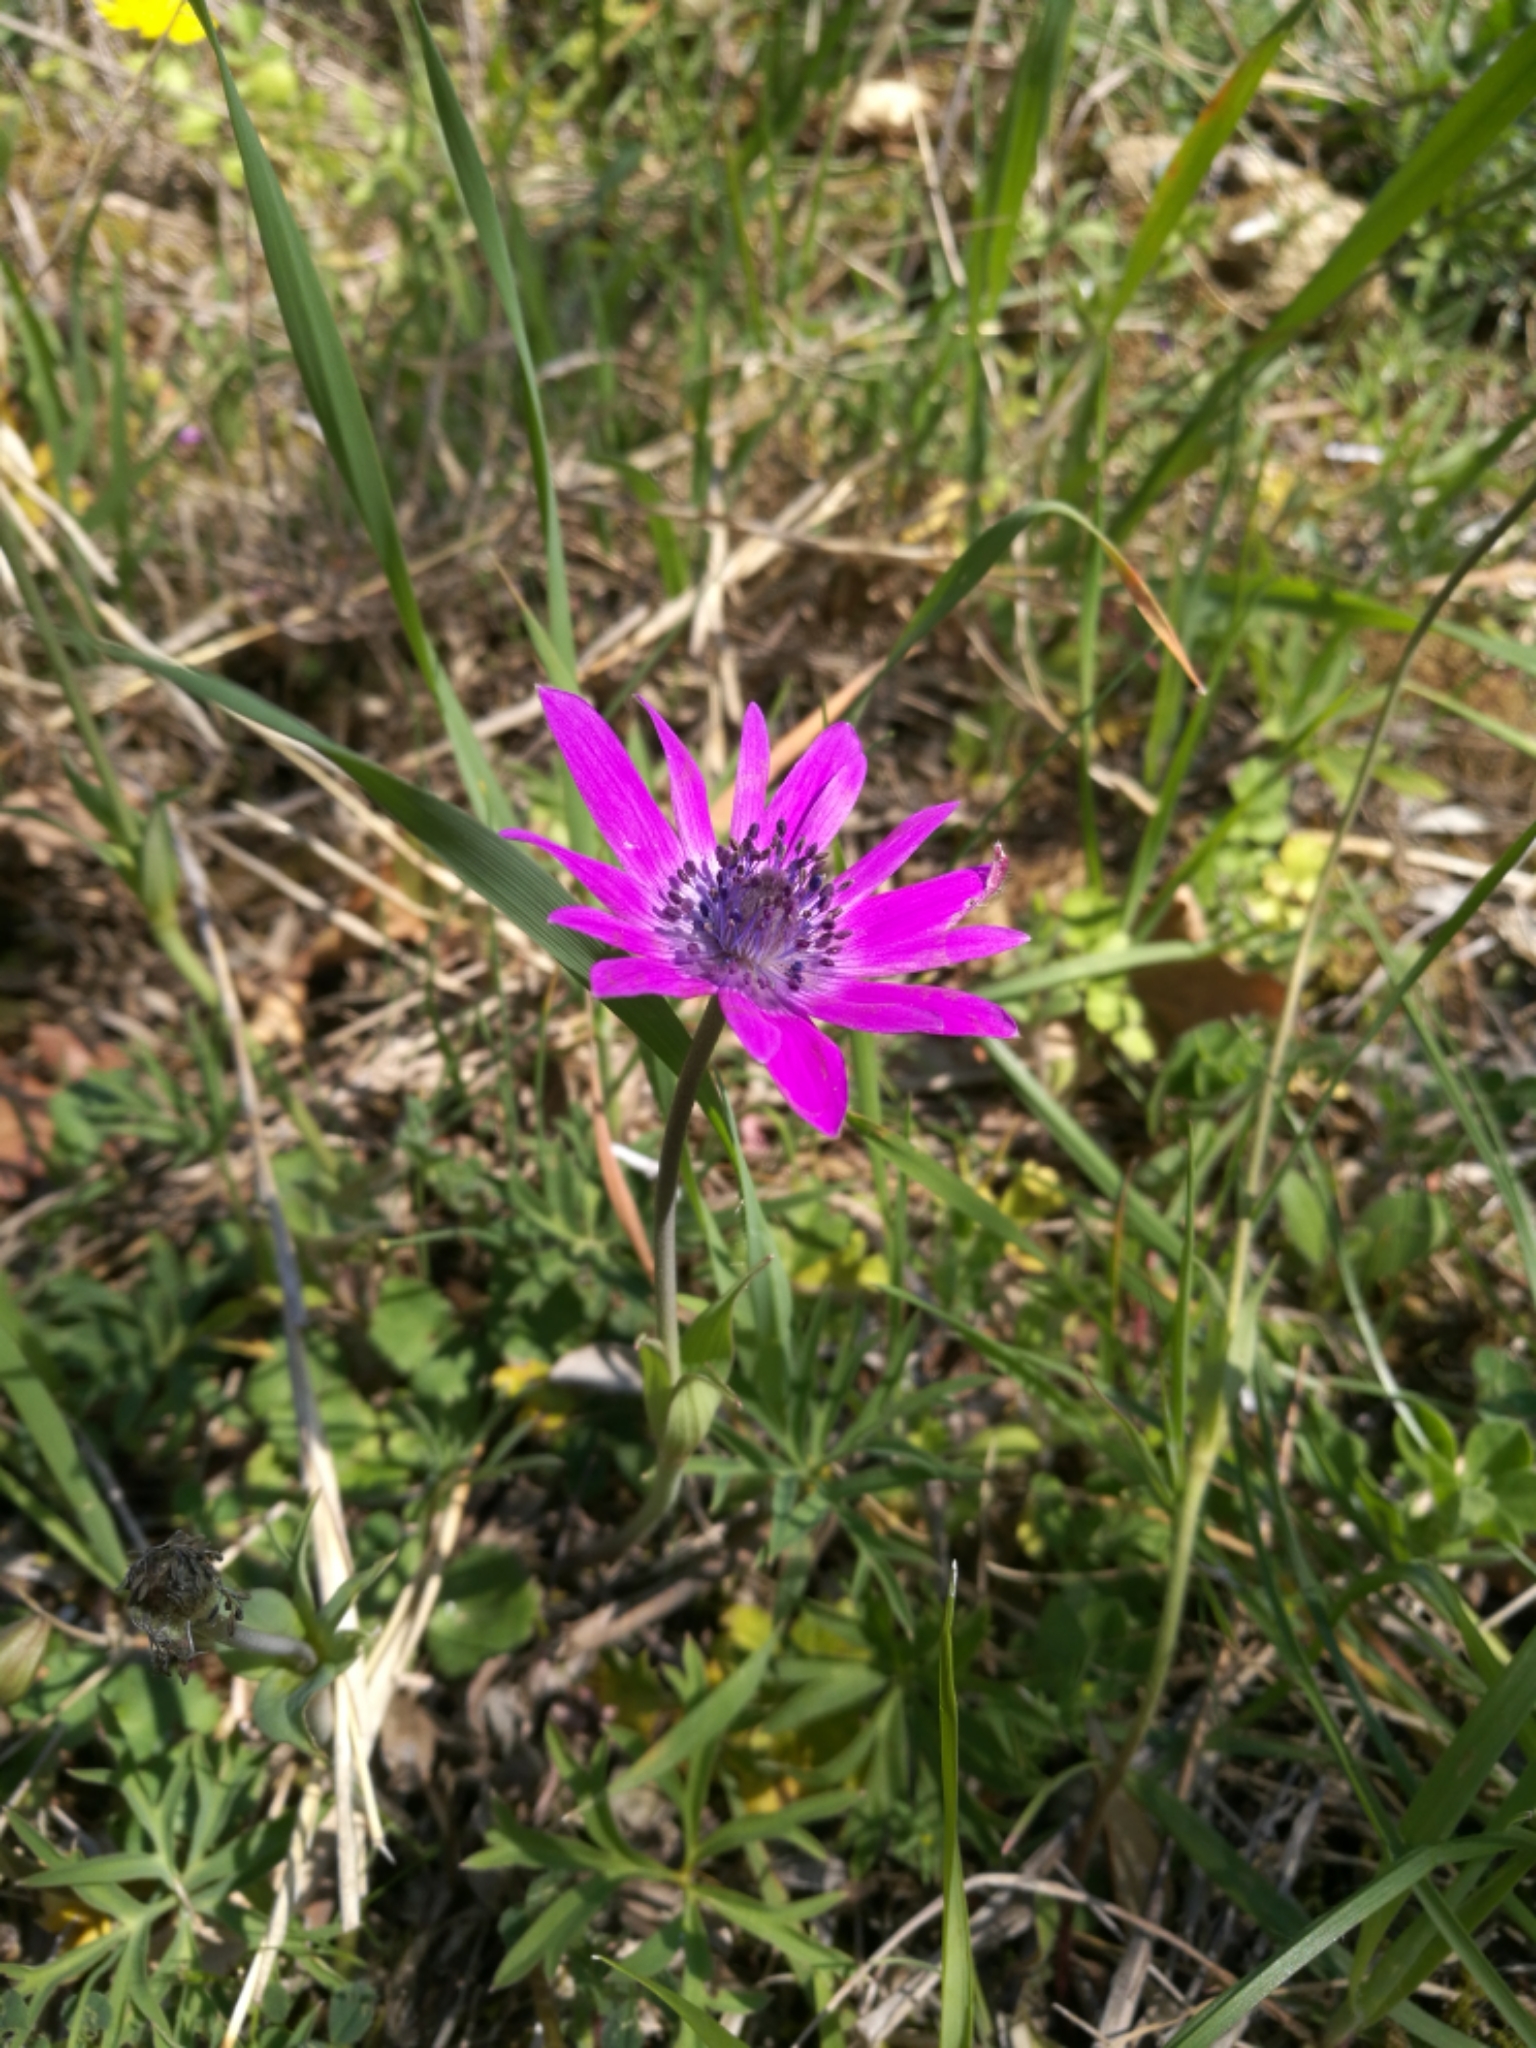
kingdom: Plantae
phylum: Tracheophyta
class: Magnoliopsida
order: Ranunculales
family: Ranunculaceae
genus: Anemone
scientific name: Anemone hortensis
